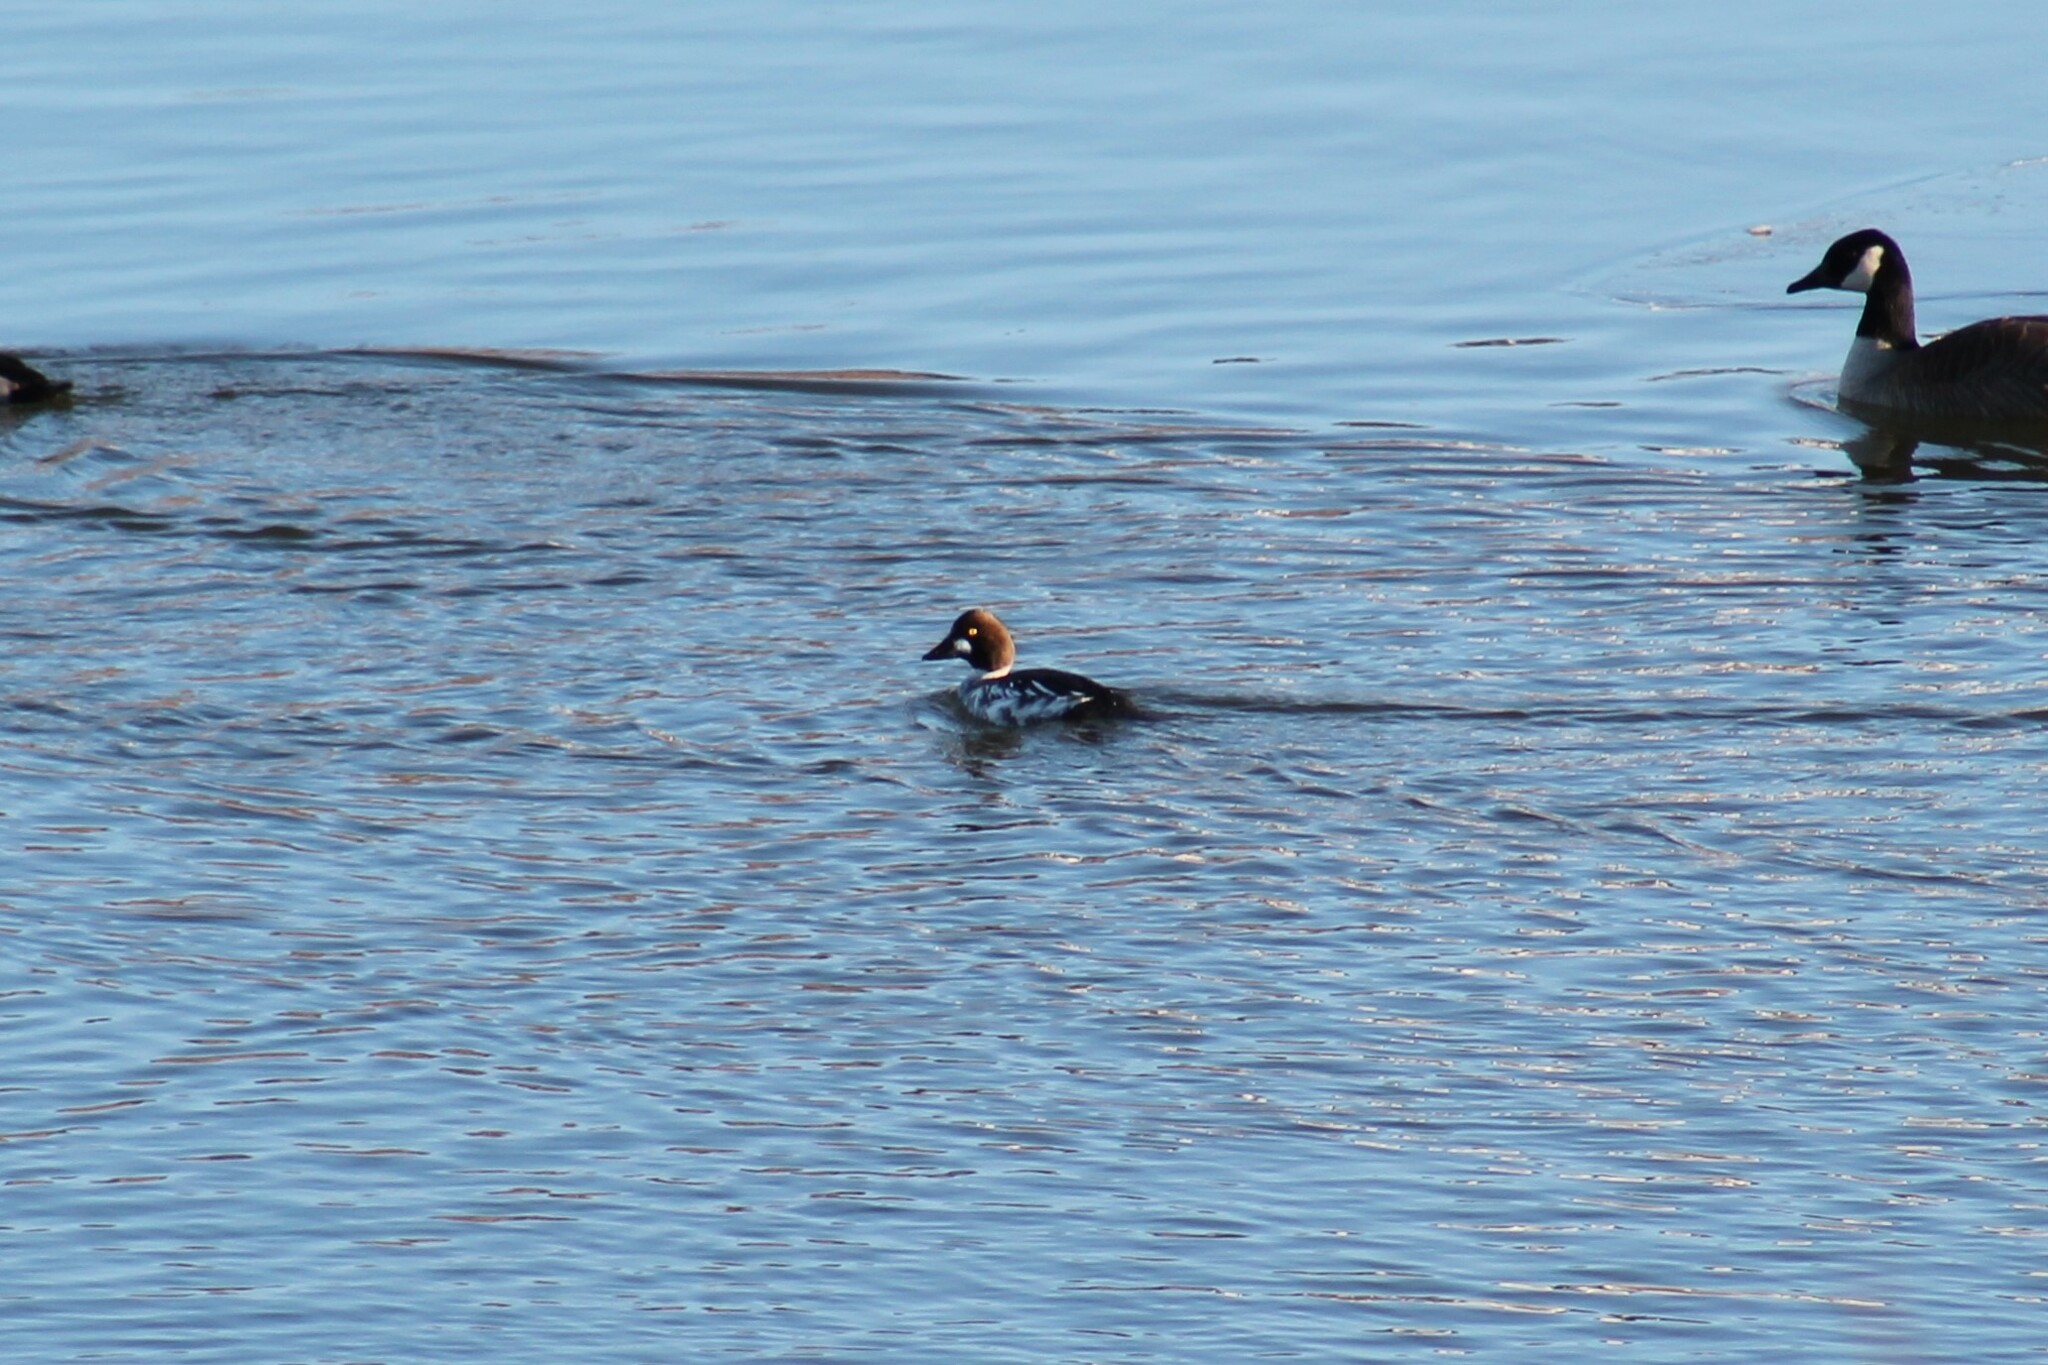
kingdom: Animalia
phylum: Chordata
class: Aves
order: Anseriformes
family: Anatidae
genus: Bucephala
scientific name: Bucephala clangula
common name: Common goldeneye
